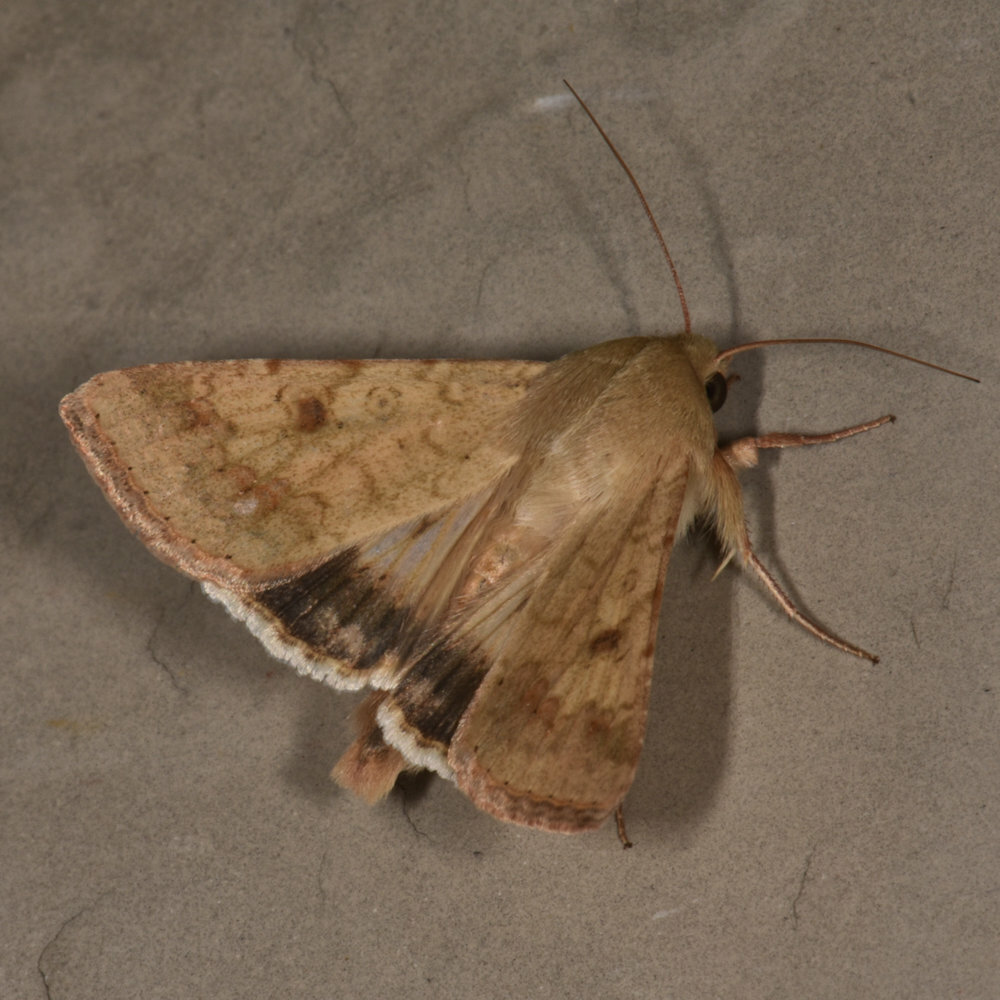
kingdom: Animalia
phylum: Arthropoda
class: Insecta
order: Lepidoptera
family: Noctuidae
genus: Helicoverpa
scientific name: Helicoverpa armigera
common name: Cotton bollworm
